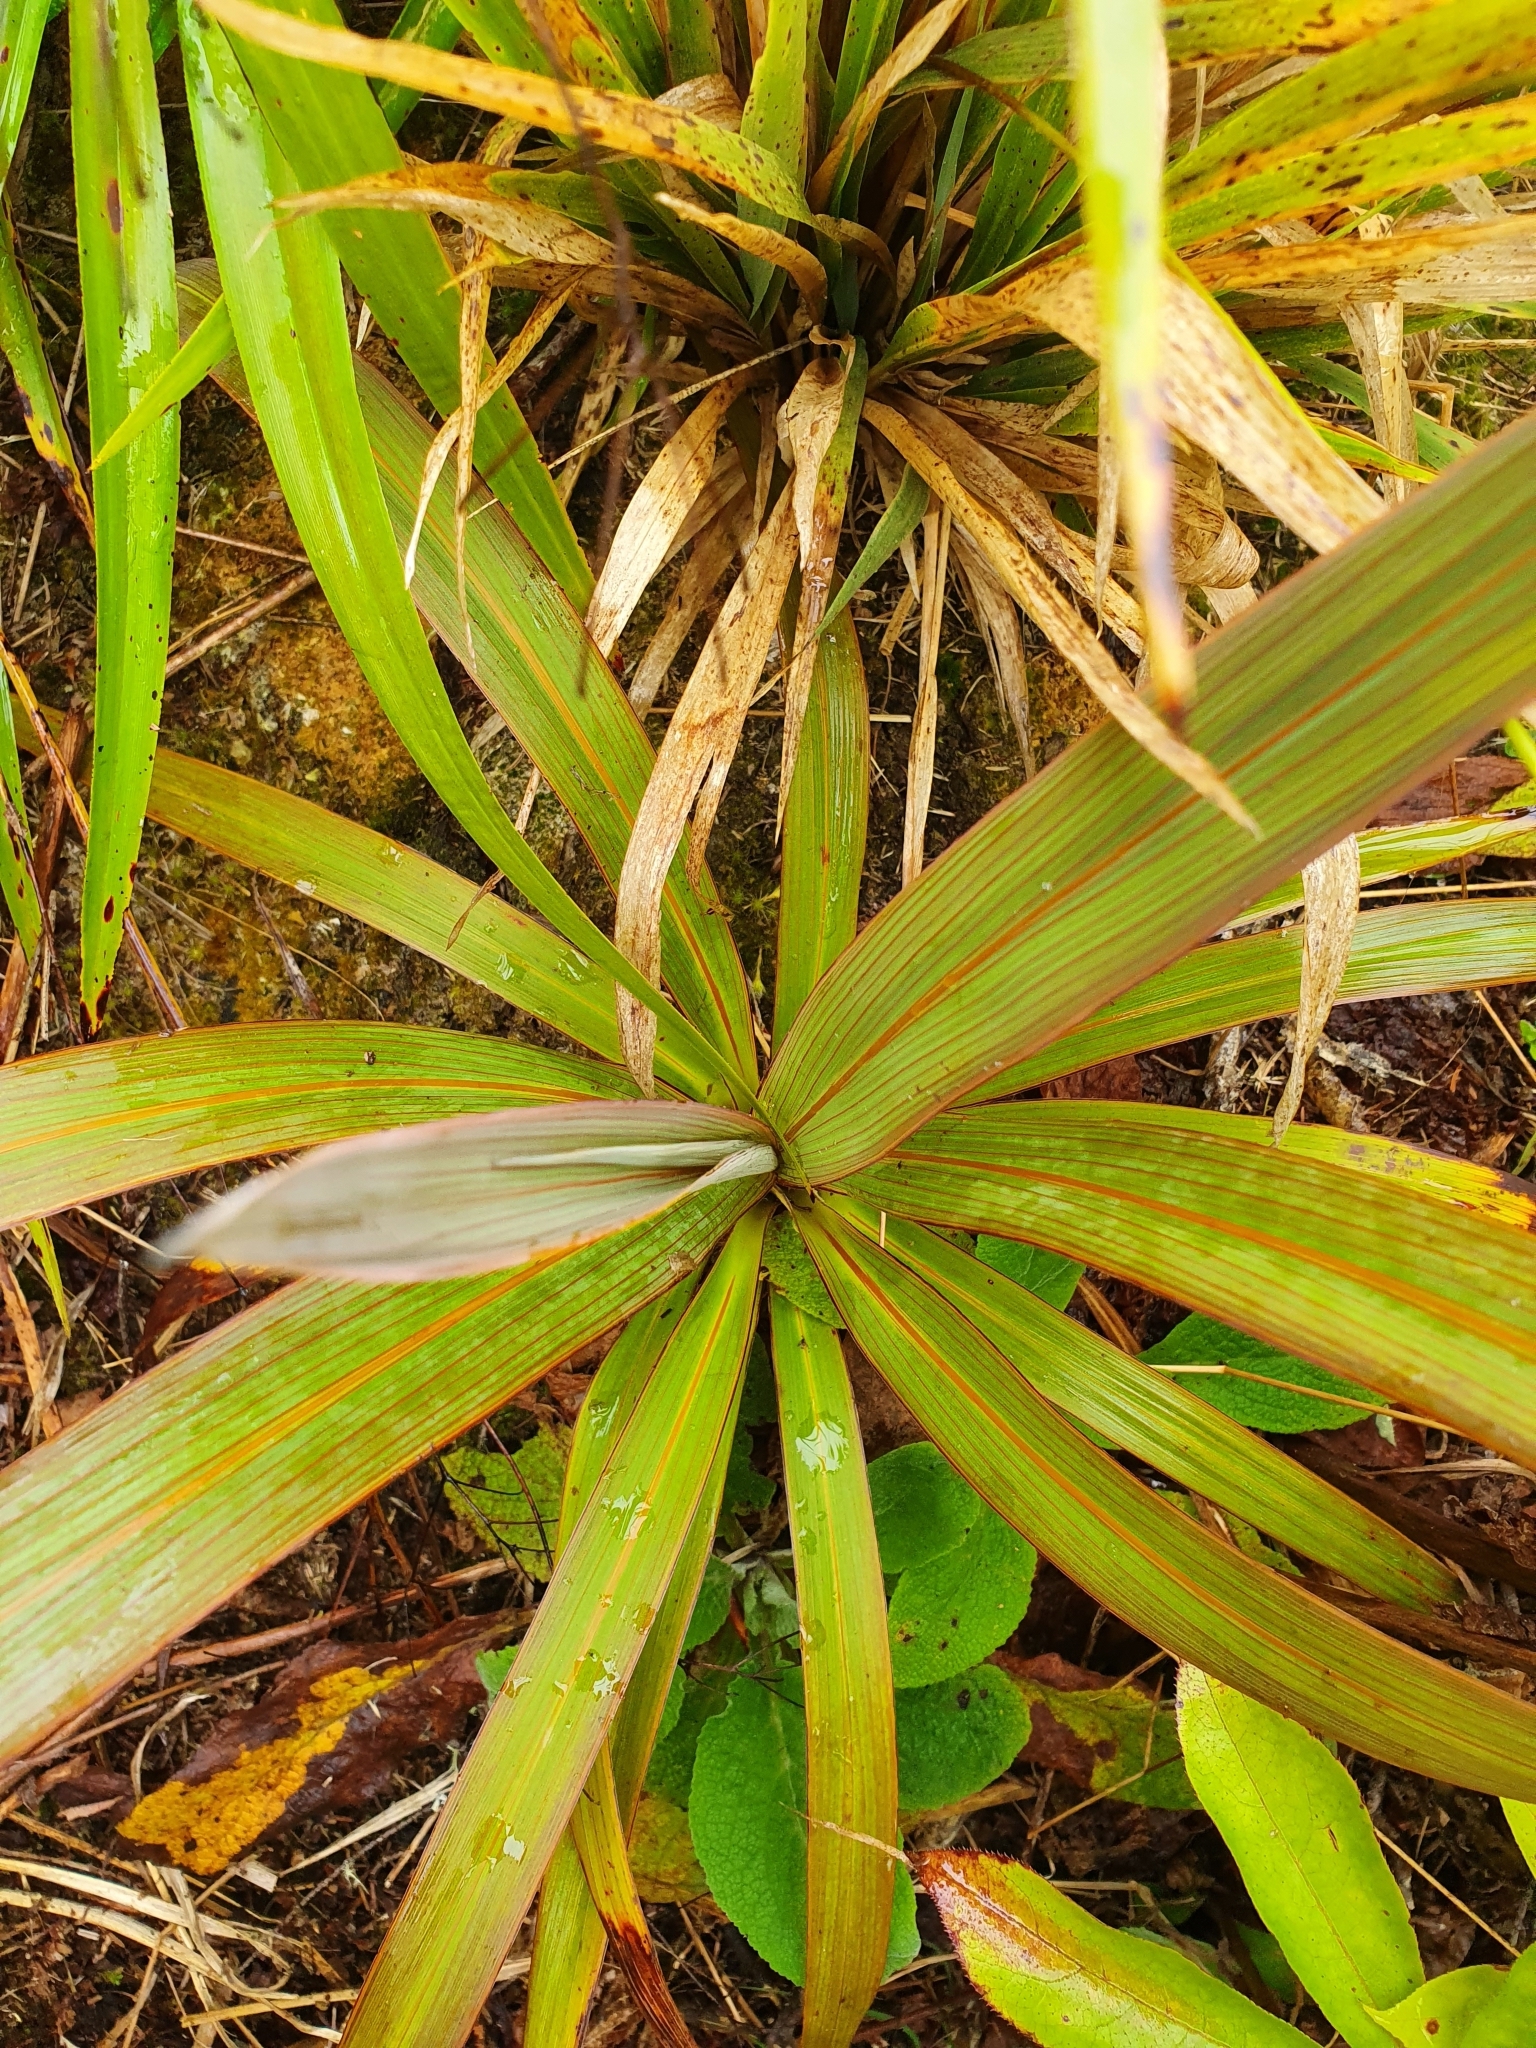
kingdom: Plantae
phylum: Tracheophyta
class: Liliopsida
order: Asparagales
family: Asparagaceae
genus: Cordyline
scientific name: Cordyline indivisa
